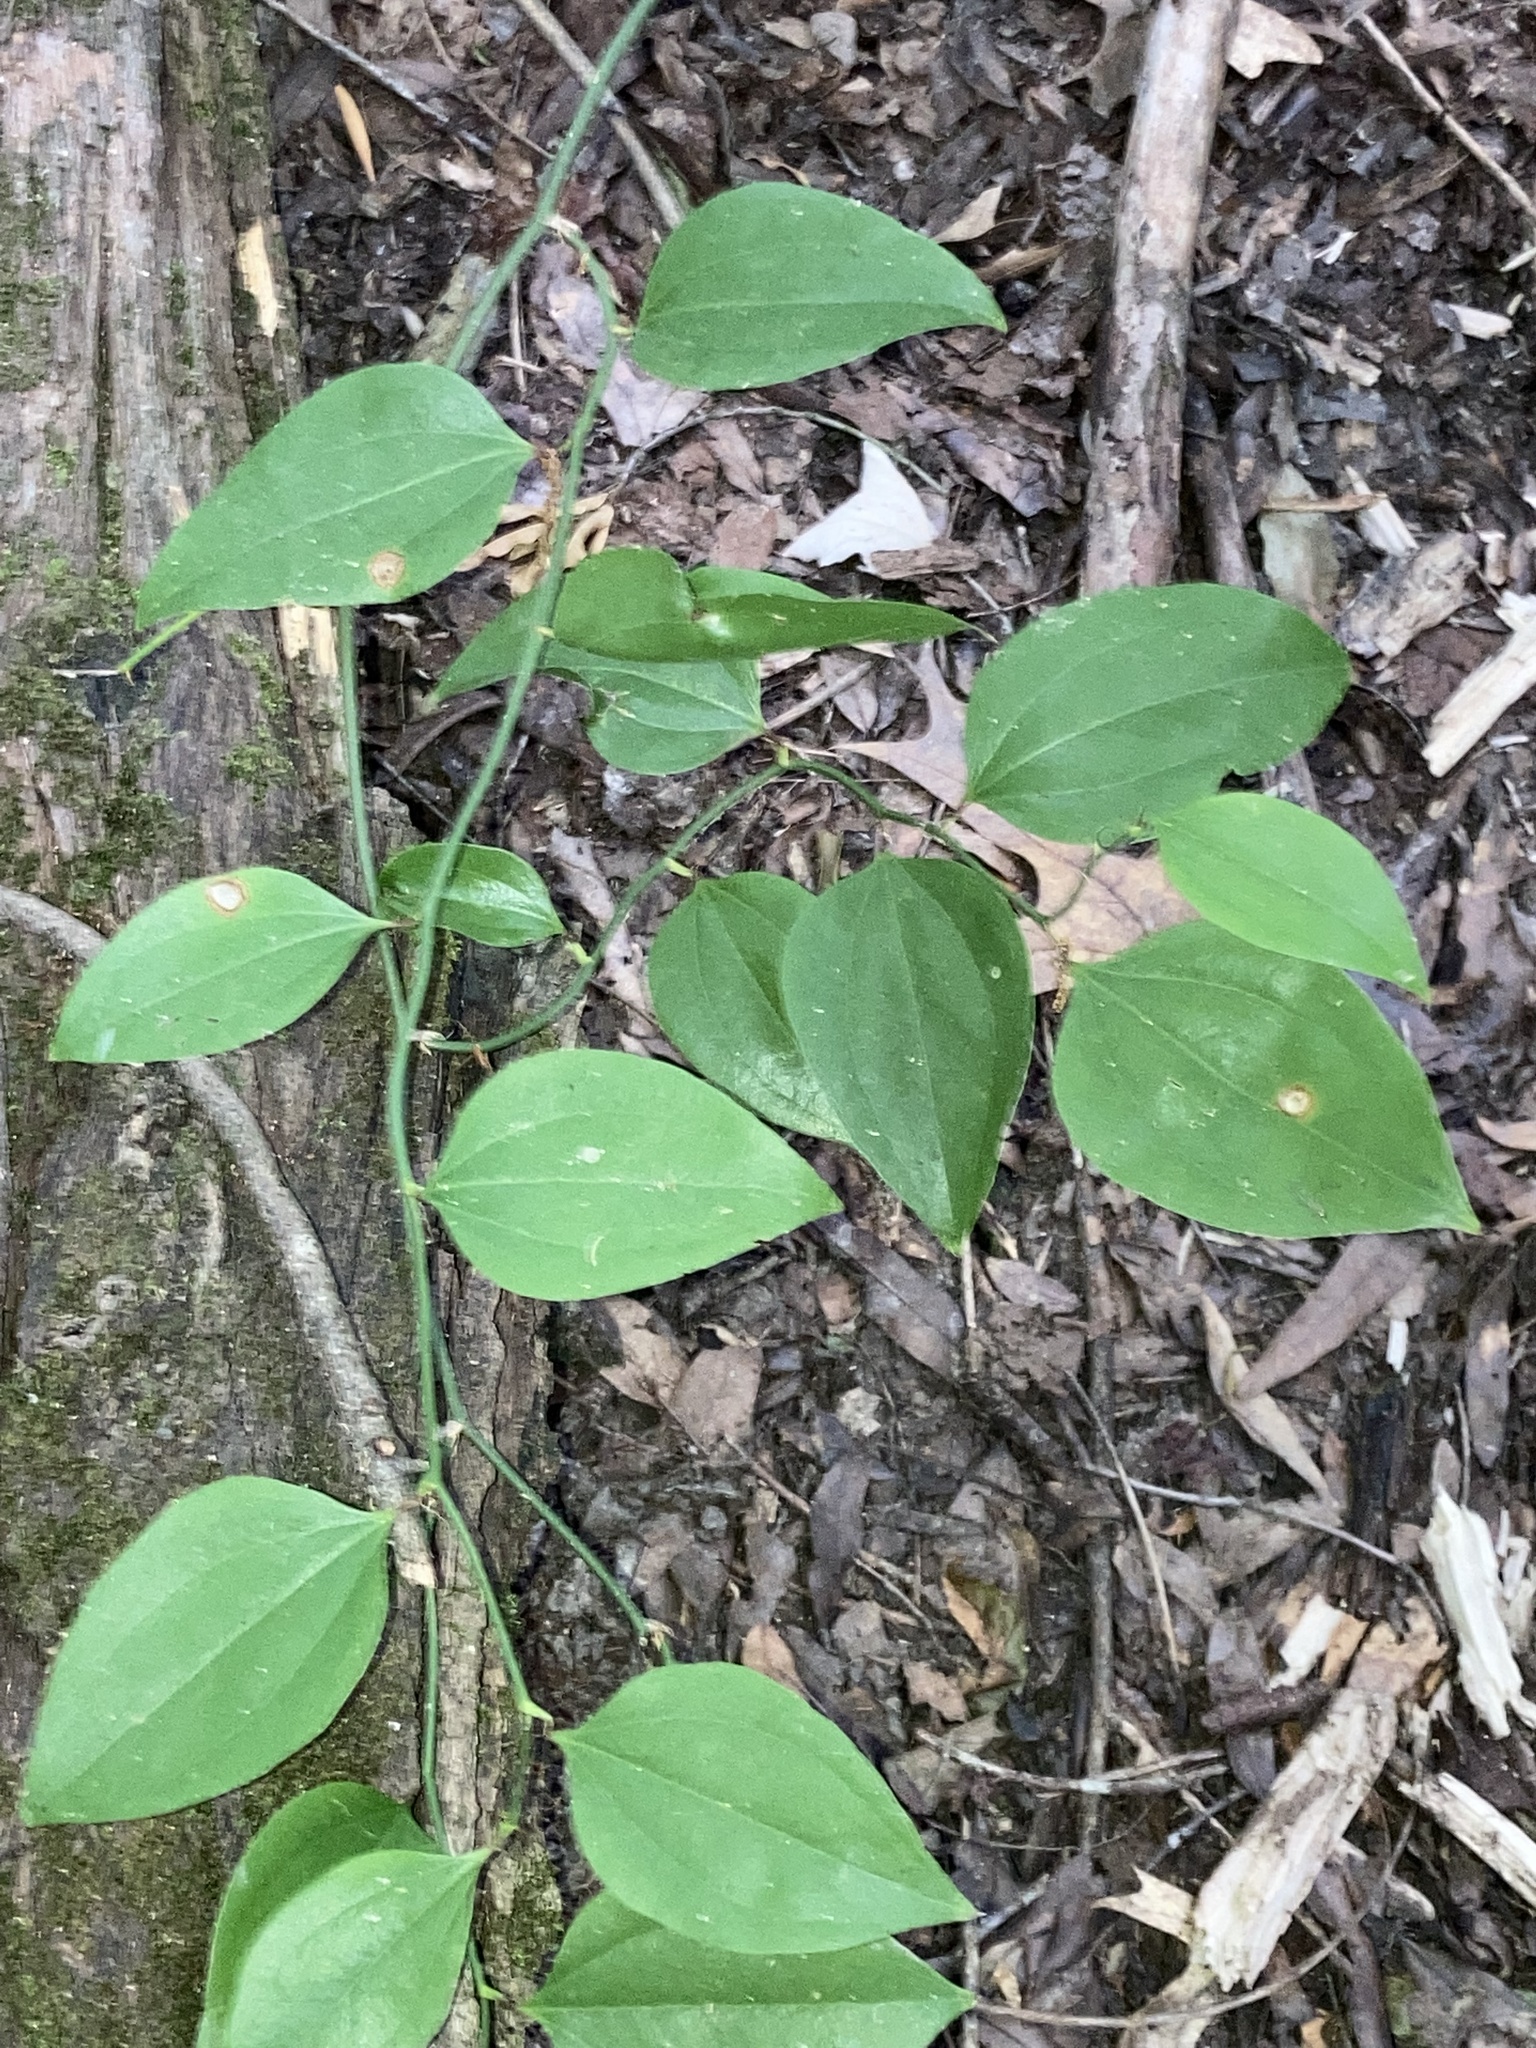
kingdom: Plantae
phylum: Tracheophyta
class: Liliopsida
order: Liliales
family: Smilacaceae
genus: Smilax
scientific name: Smilax rotundifolia
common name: Bullbriar
